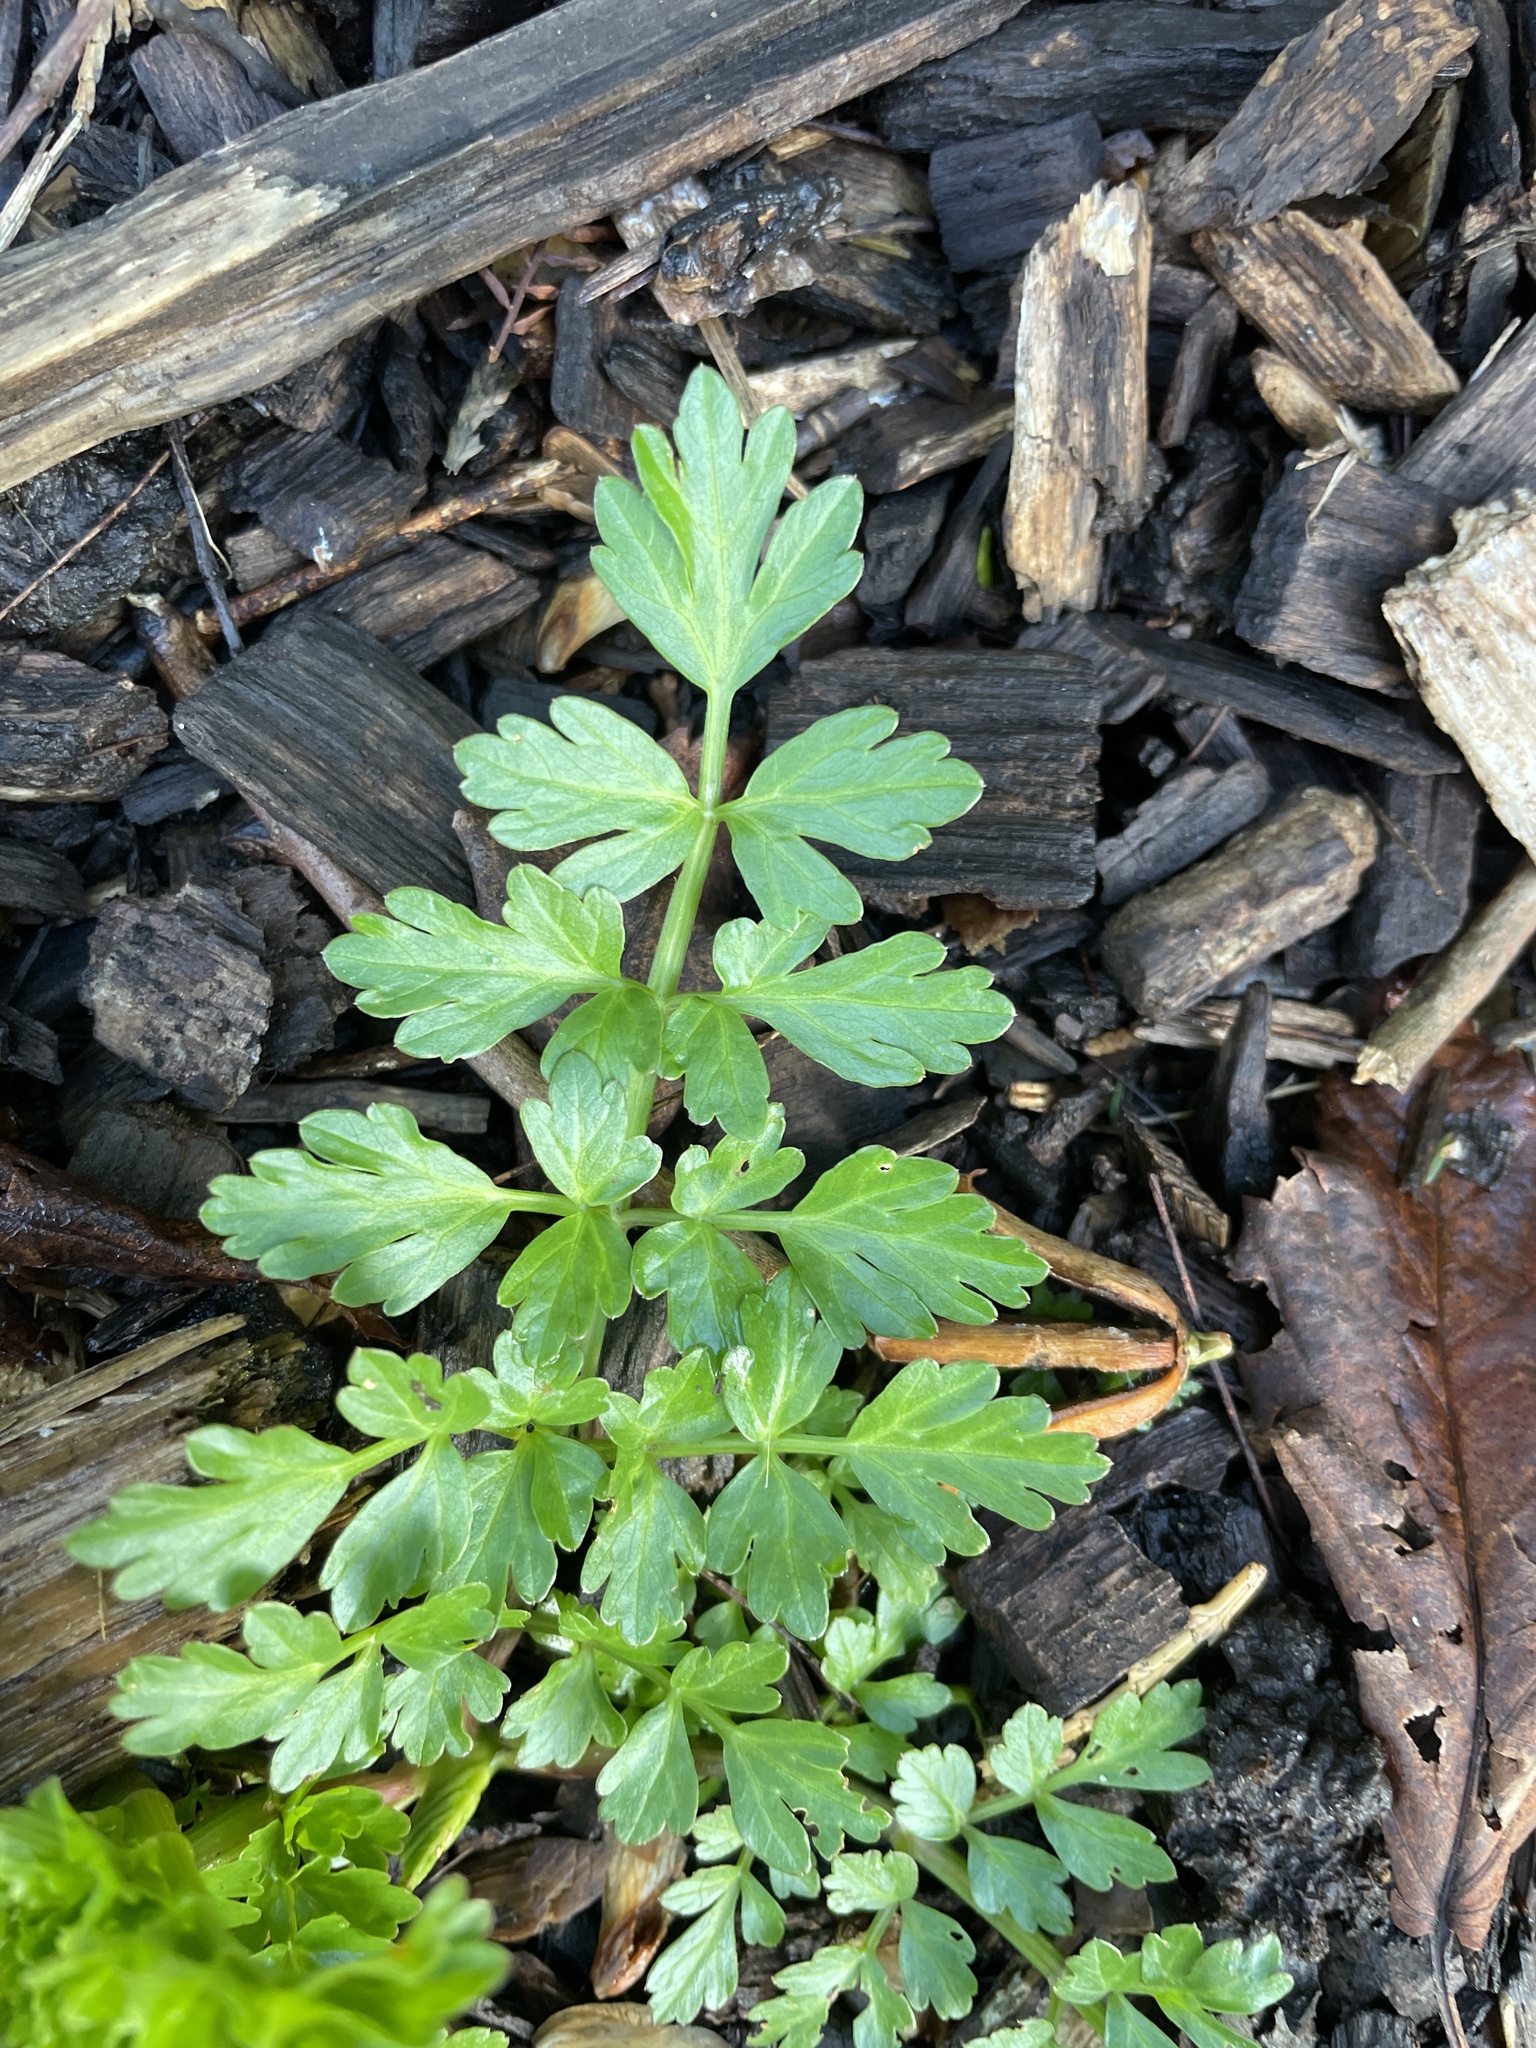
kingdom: Plantae
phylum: Tracheophyta
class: Magnoliopsida
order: Apiales
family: Apiaceae
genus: Oenanthe
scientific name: Oenanthe crocata
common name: Hemlock water-dropwort
